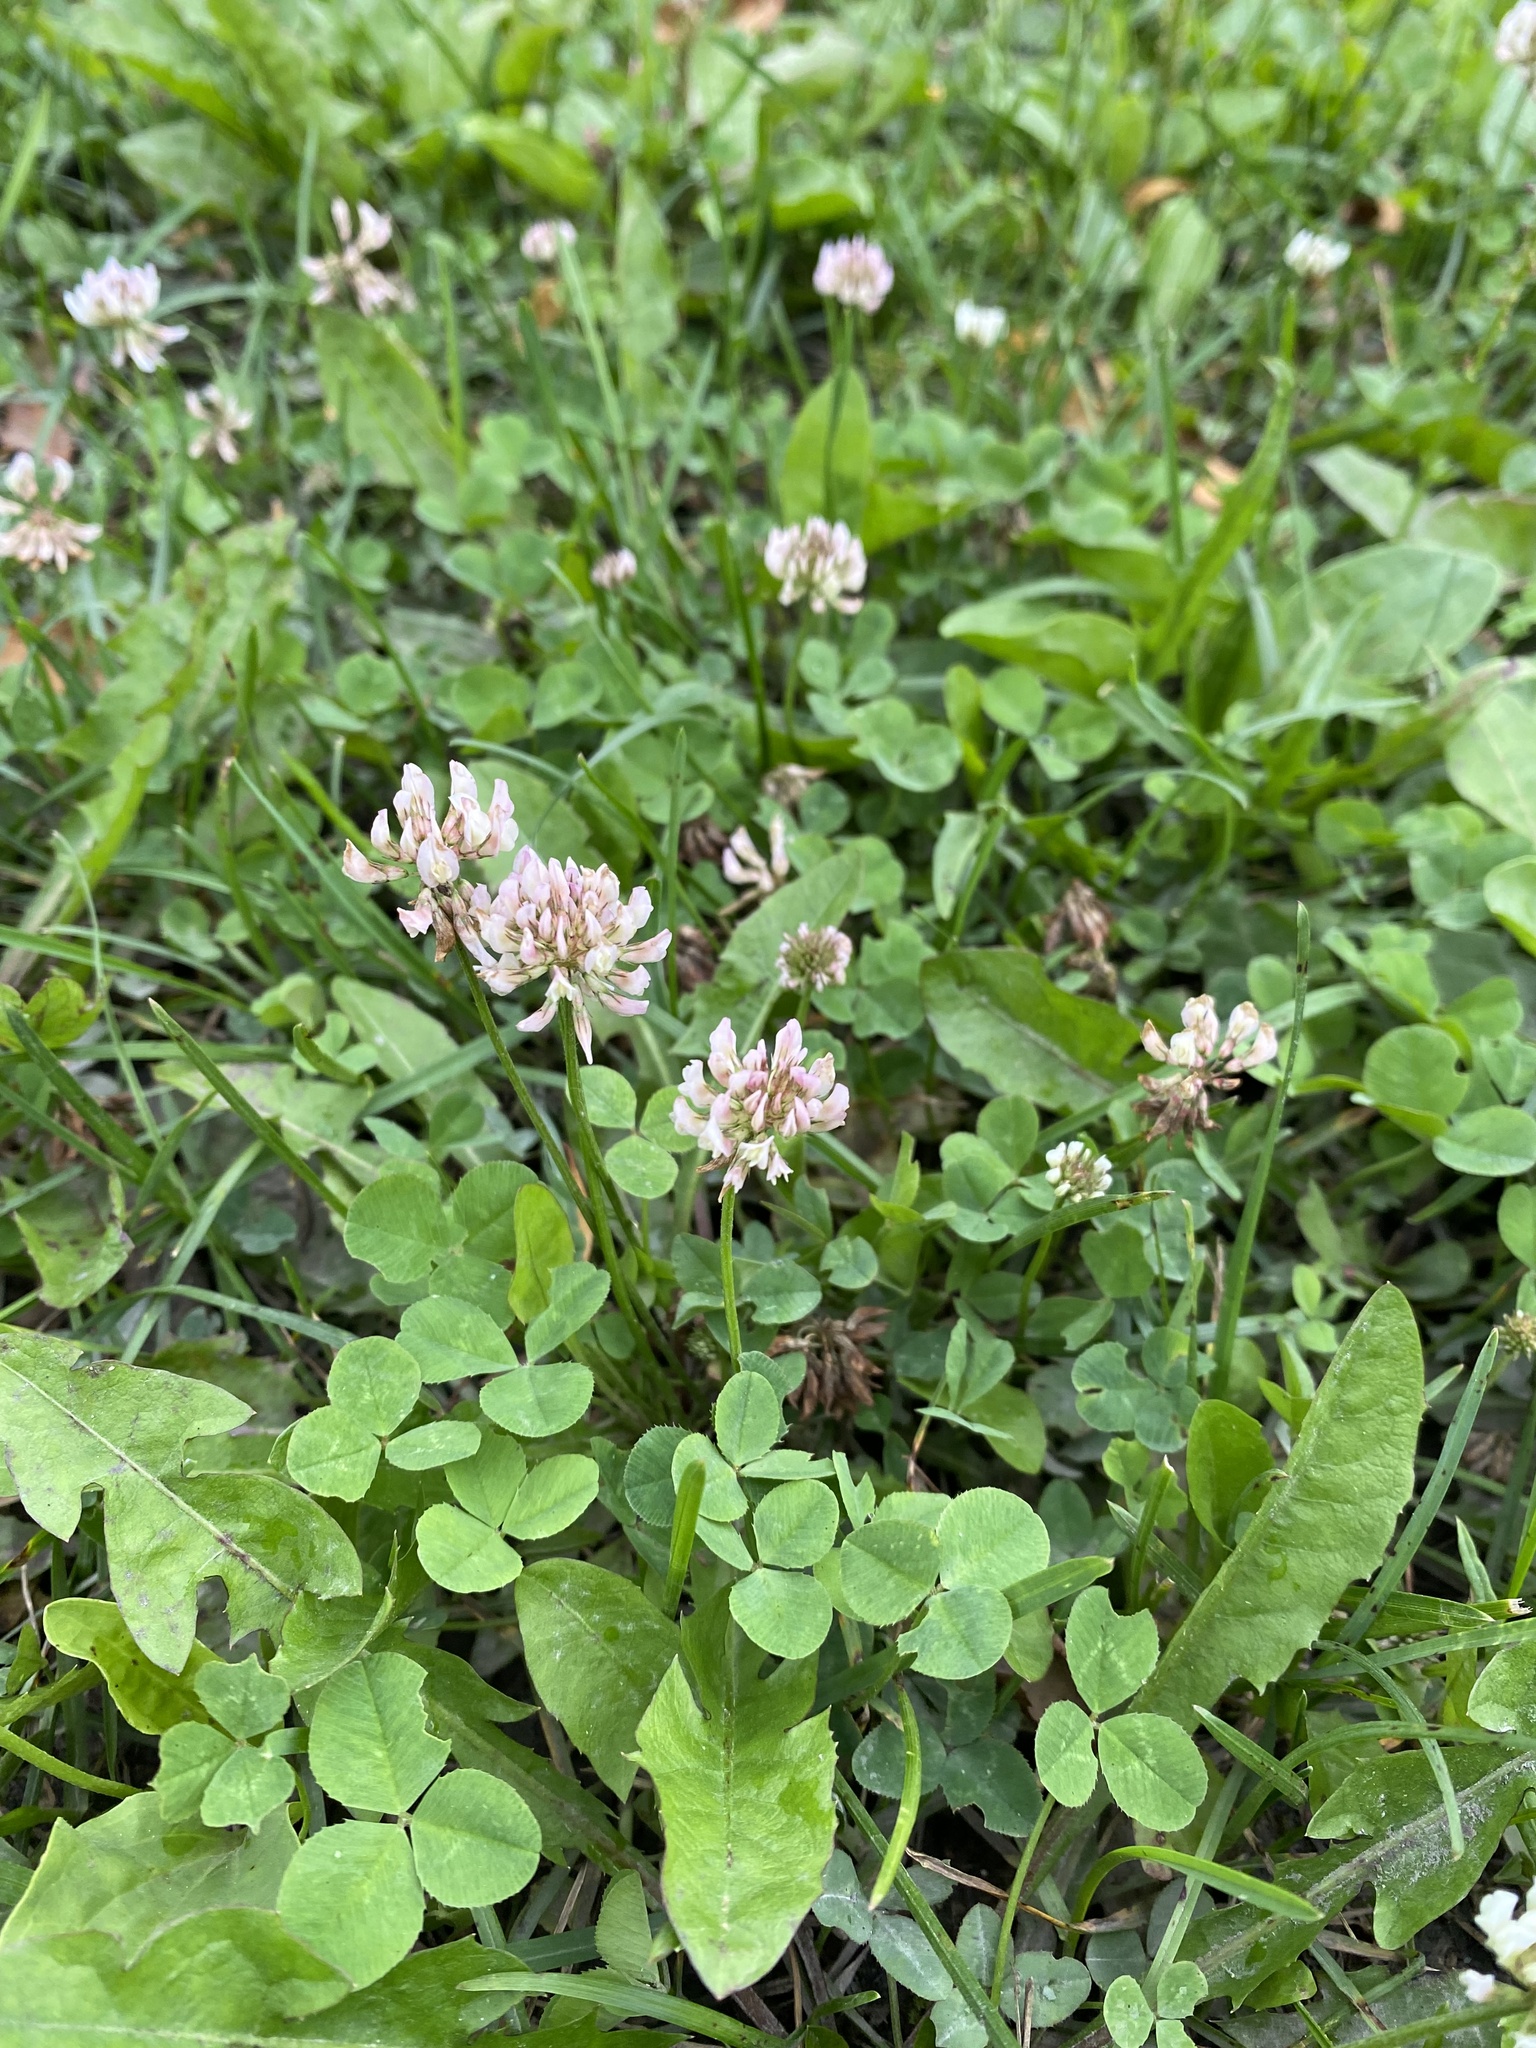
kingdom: Plantae
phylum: Tracheophyta
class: Magnoliopsida
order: Fabales
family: Fabaceae
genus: Trifolium
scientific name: Trifolium repens
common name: White clover
